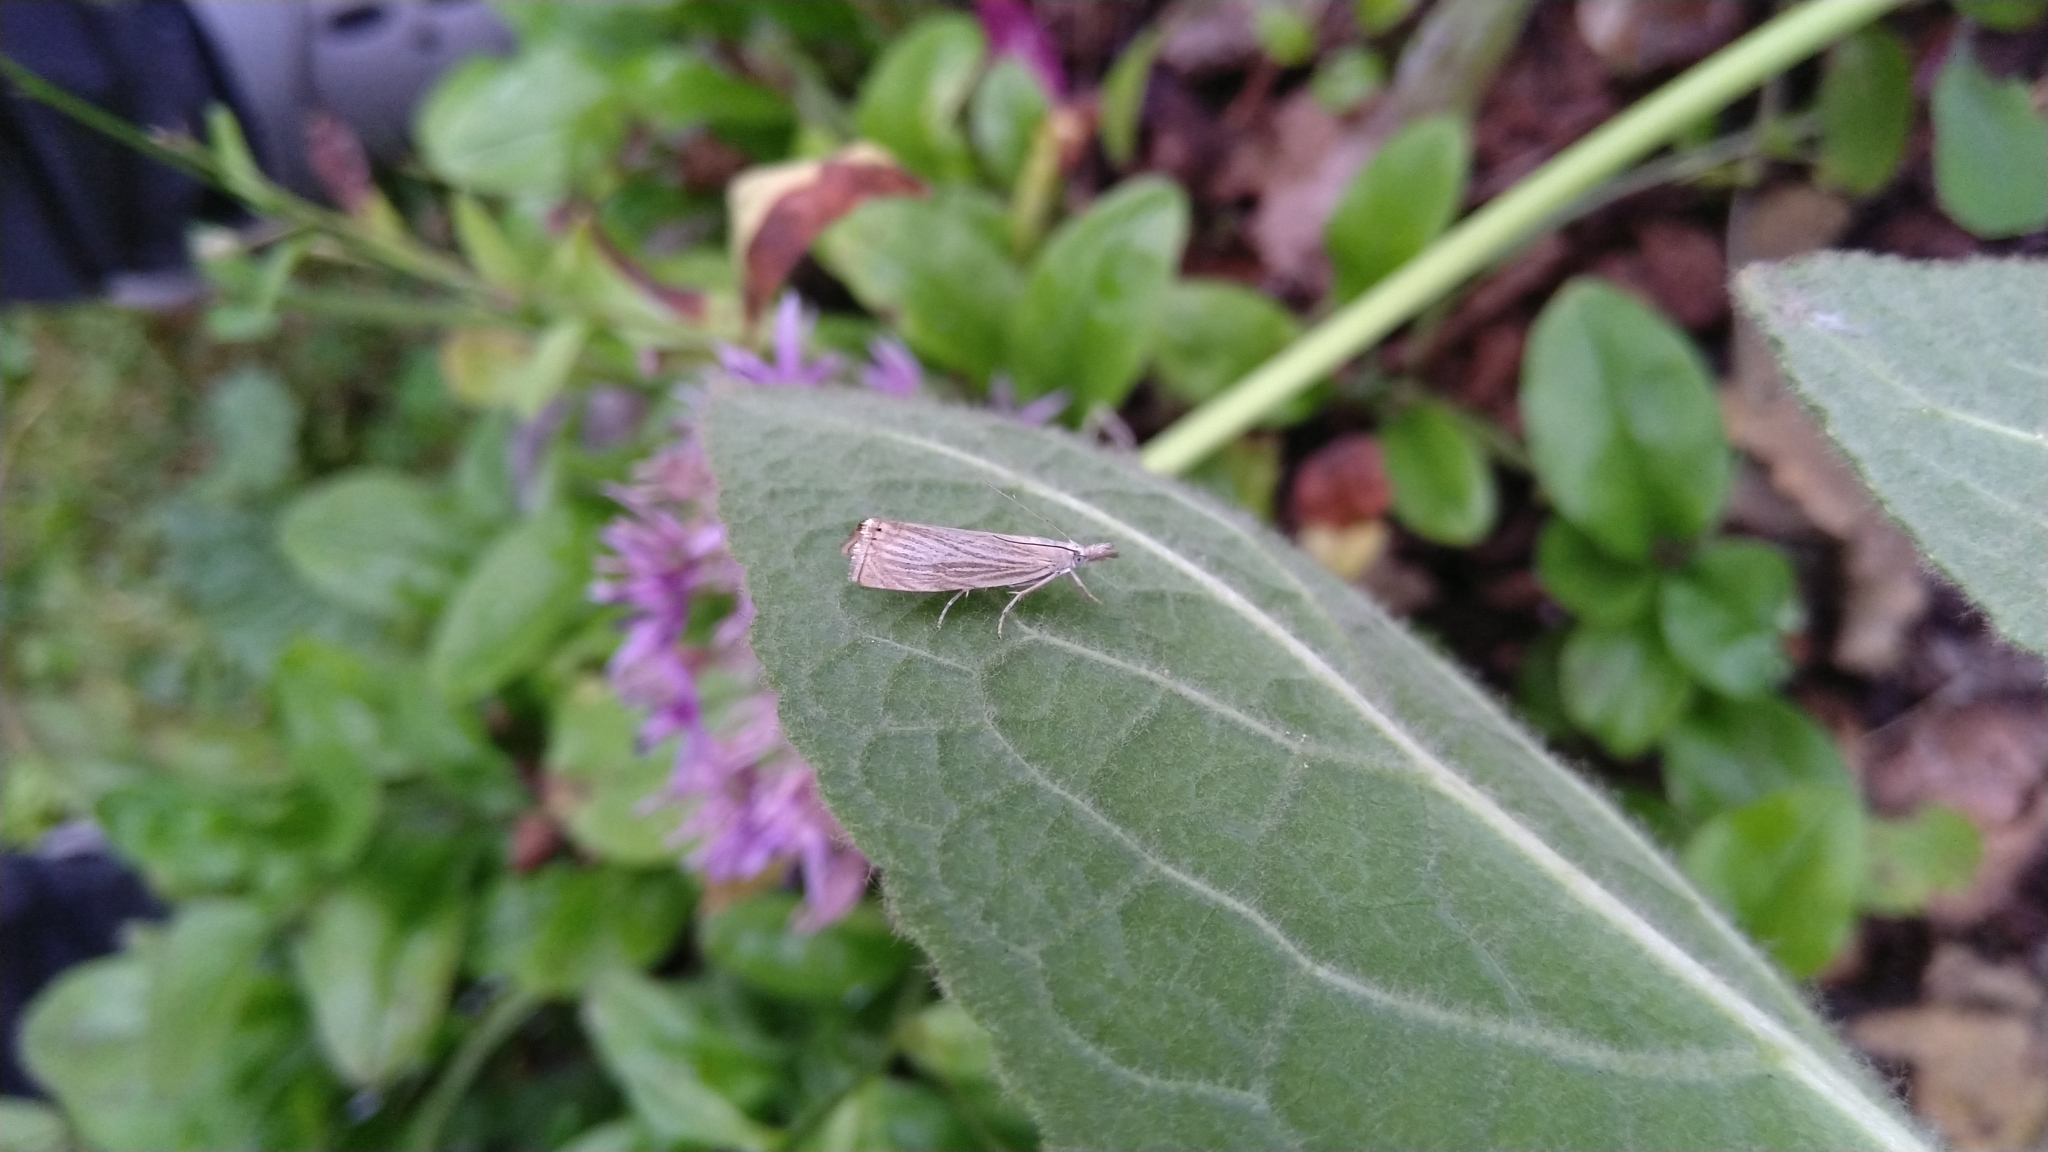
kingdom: Animalia
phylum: Arthropoda
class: Insecta
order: Lepidoptera
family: Crambidae
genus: Chrysoteuchia
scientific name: Chrysoteuchia culmella
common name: Garden grass-veneer
